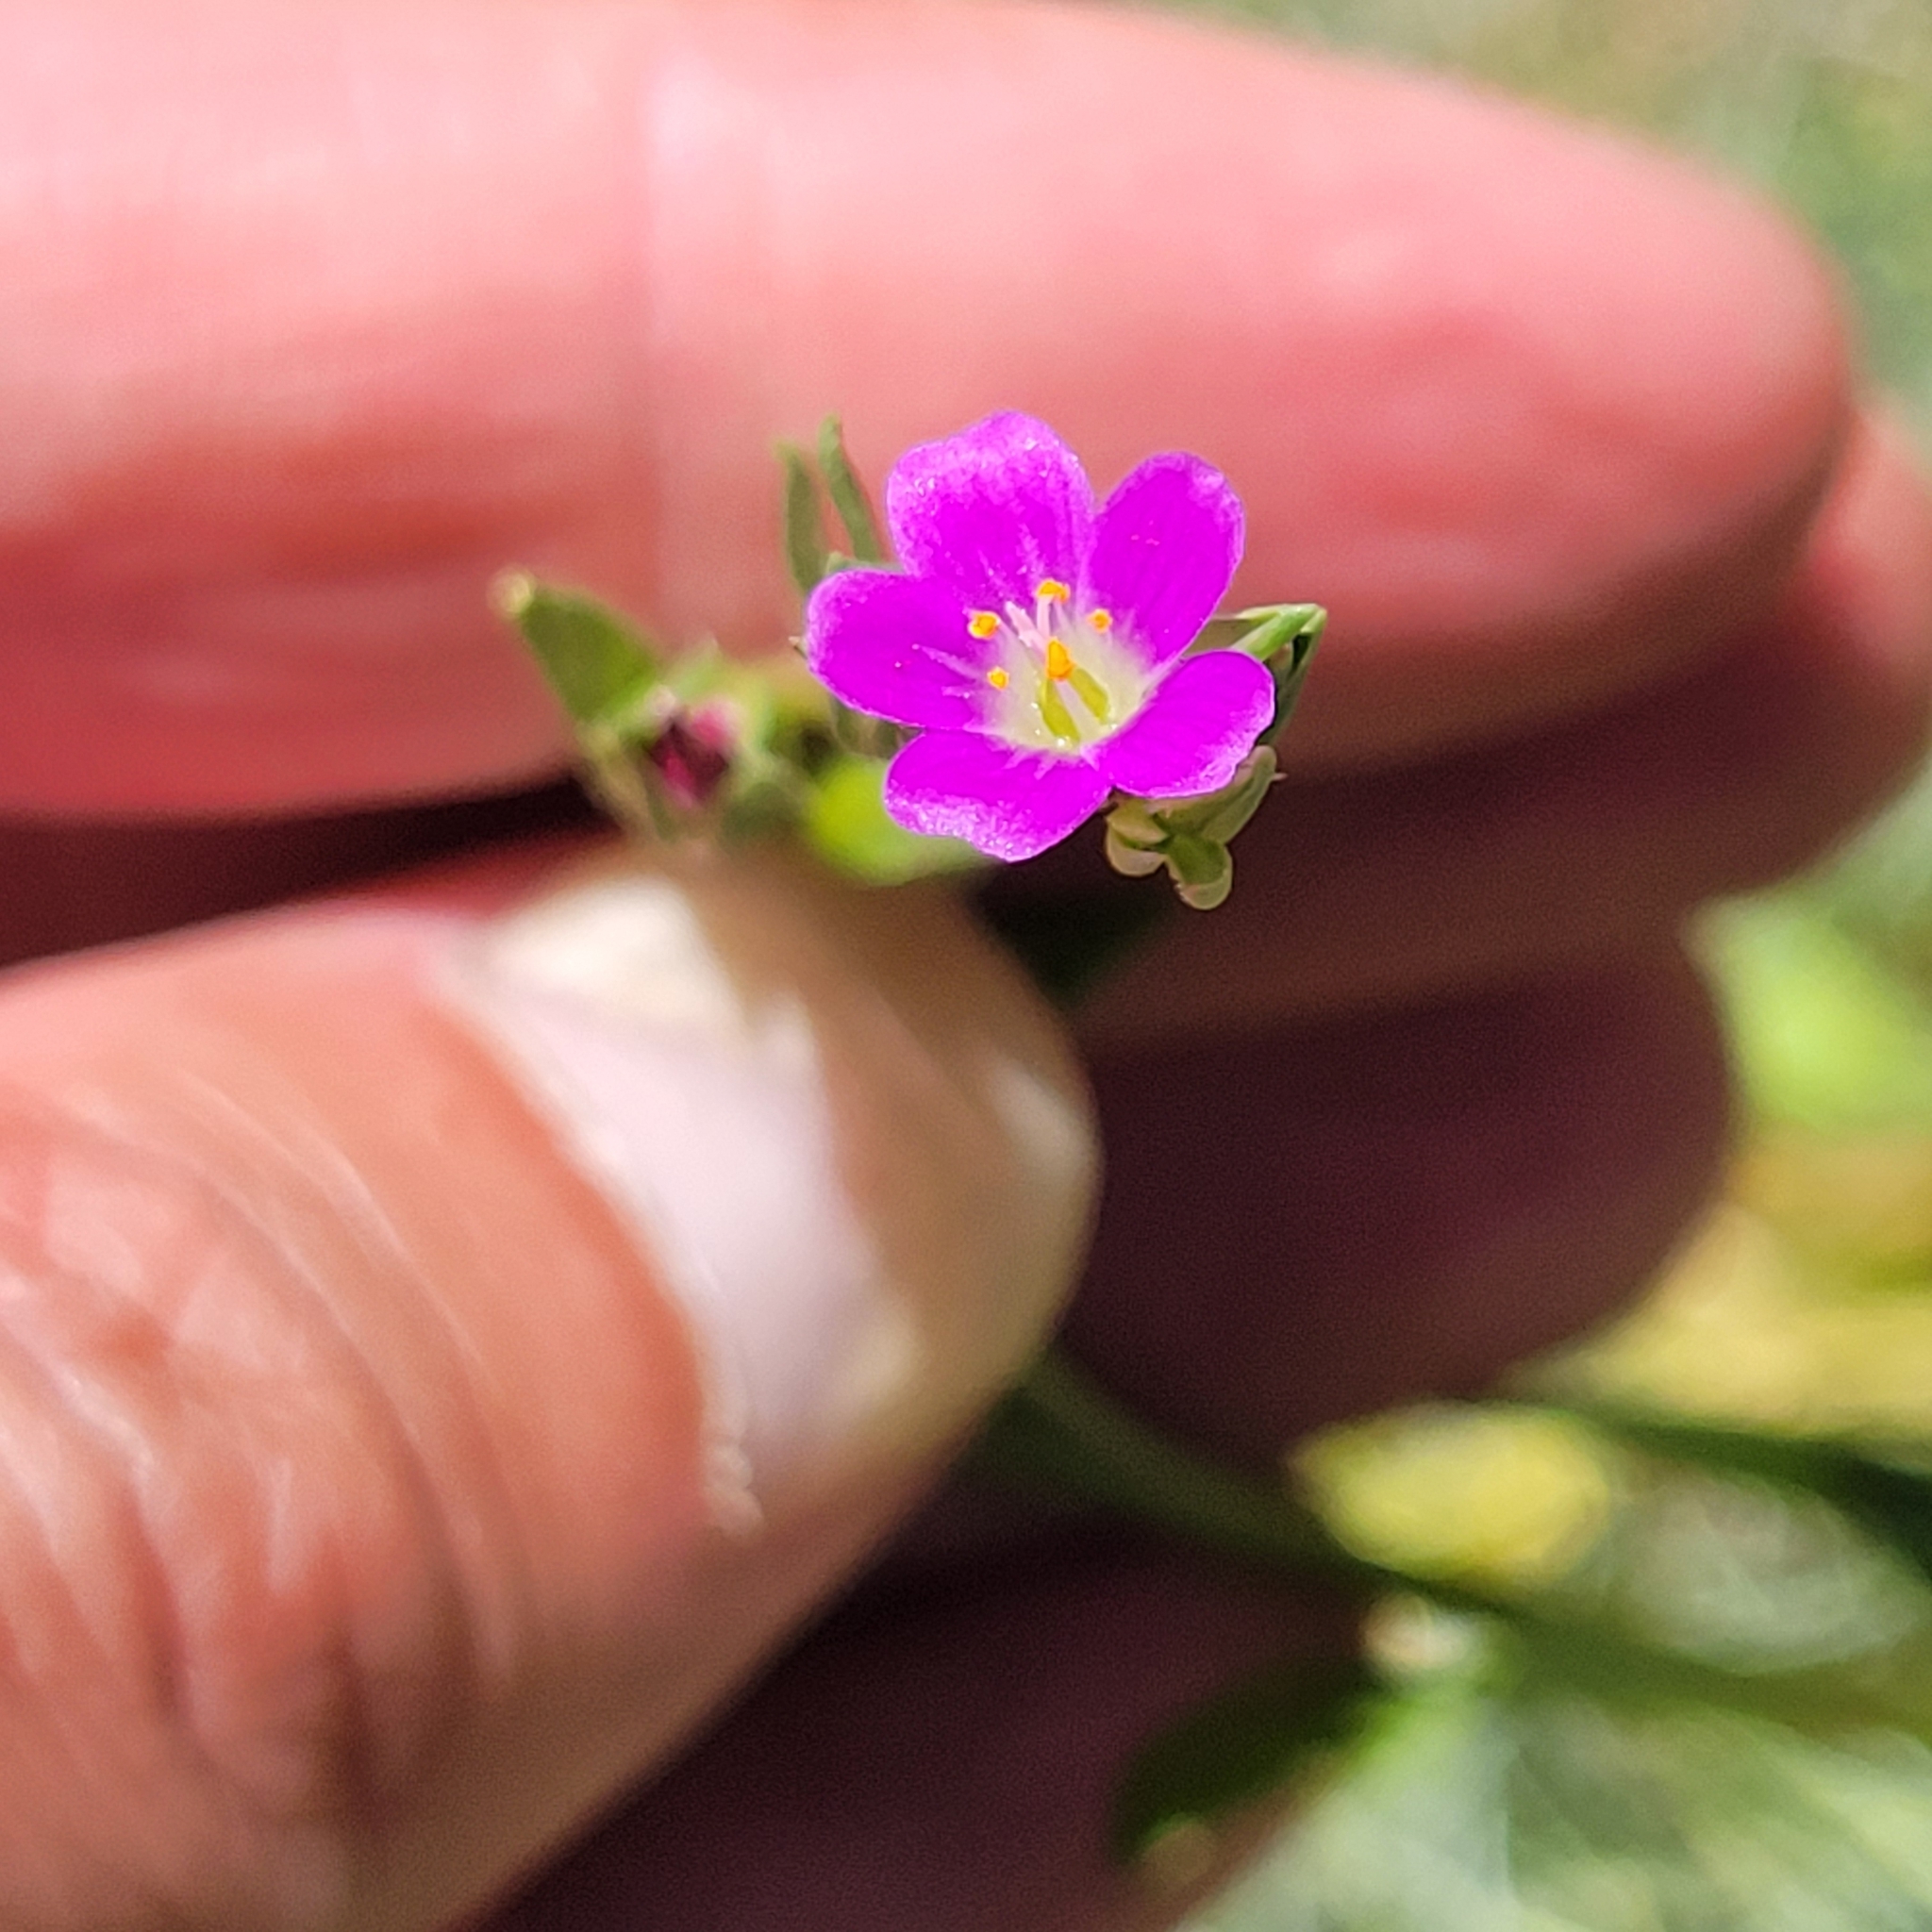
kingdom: Plantae
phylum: Tracheophyta
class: Magnoliopsida
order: Caryophyllales
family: Montiaceae
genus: Calandrinia
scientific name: Calandrinia menziesii
